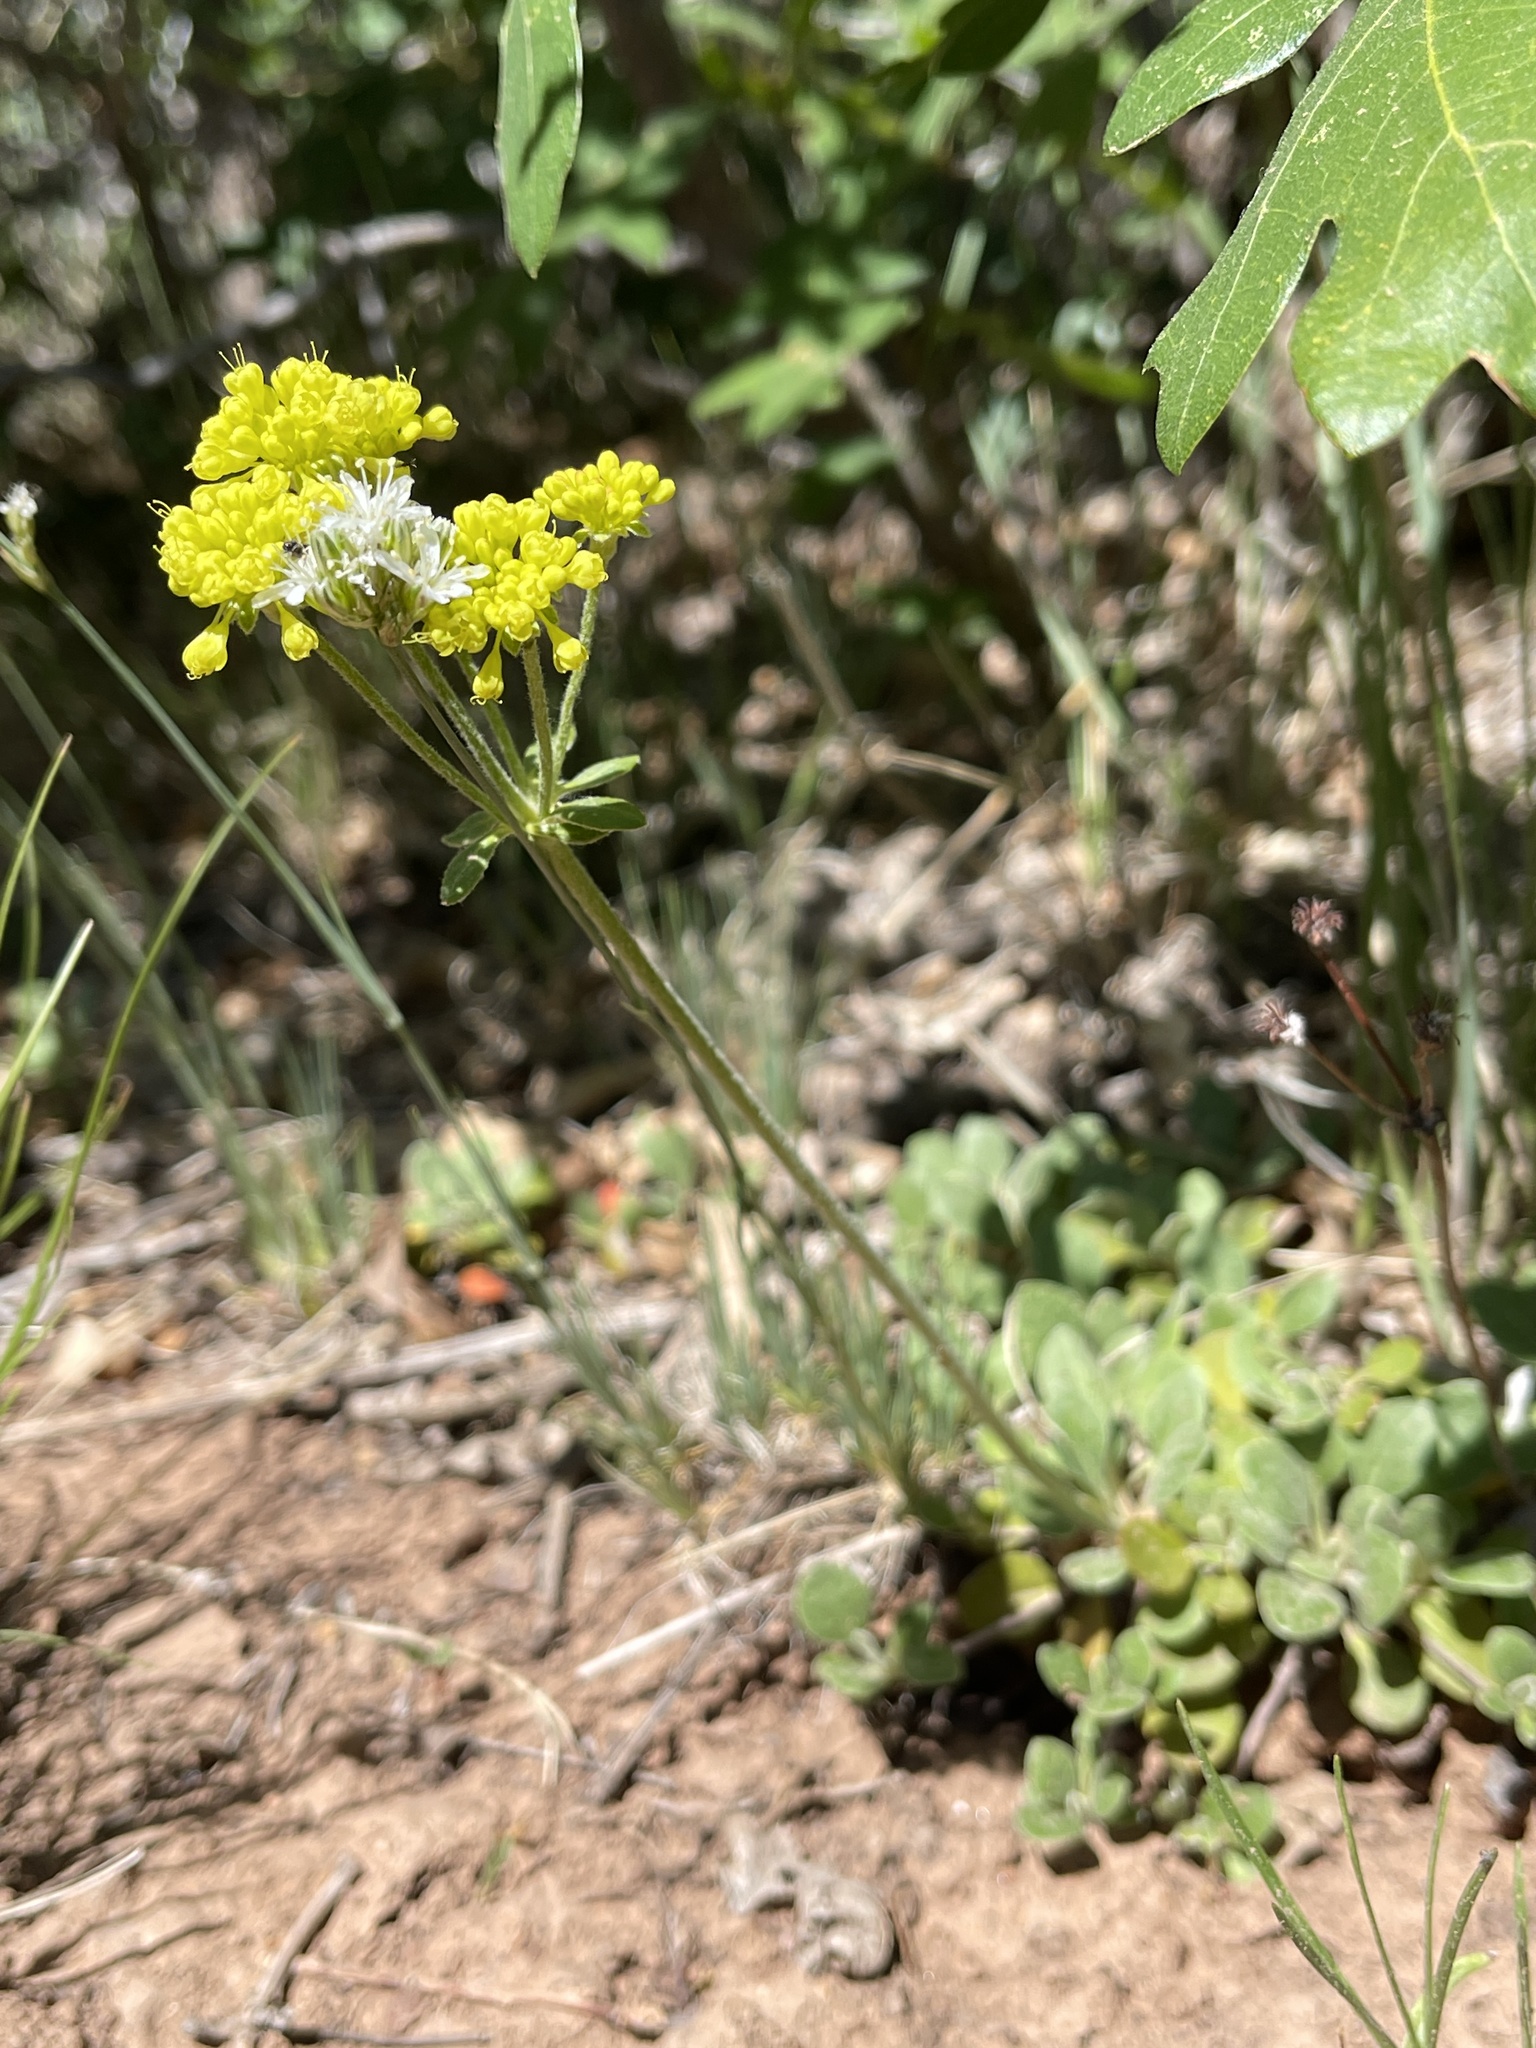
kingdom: Plantae
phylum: Tracheophyta
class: Magnoliopsida
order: Caryophyllales
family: Polygonaceae
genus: Eriogonum
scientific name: Eriogonum umbellatum
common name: Sulfur-buckwheat
